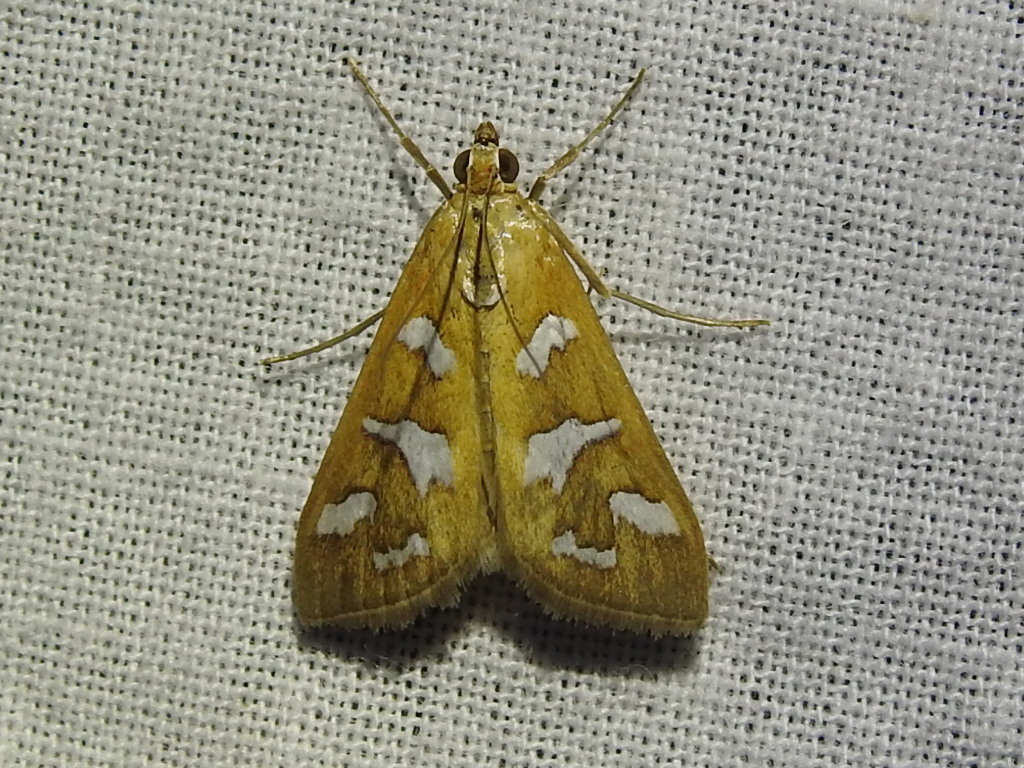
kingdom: Animalia
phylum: Arthropoda
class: Insecta
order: Lepidoptera
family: Crambidae
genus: Diastictis
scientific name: Diastictis fracturalis
